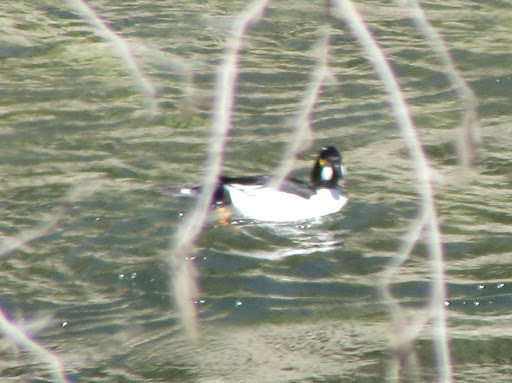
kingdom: Animalia
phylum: Chordata
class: Aves
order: Anseriformes
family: Anatidae
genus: Bucephala
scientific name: Bucephala clangula
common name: Common goldeneye
